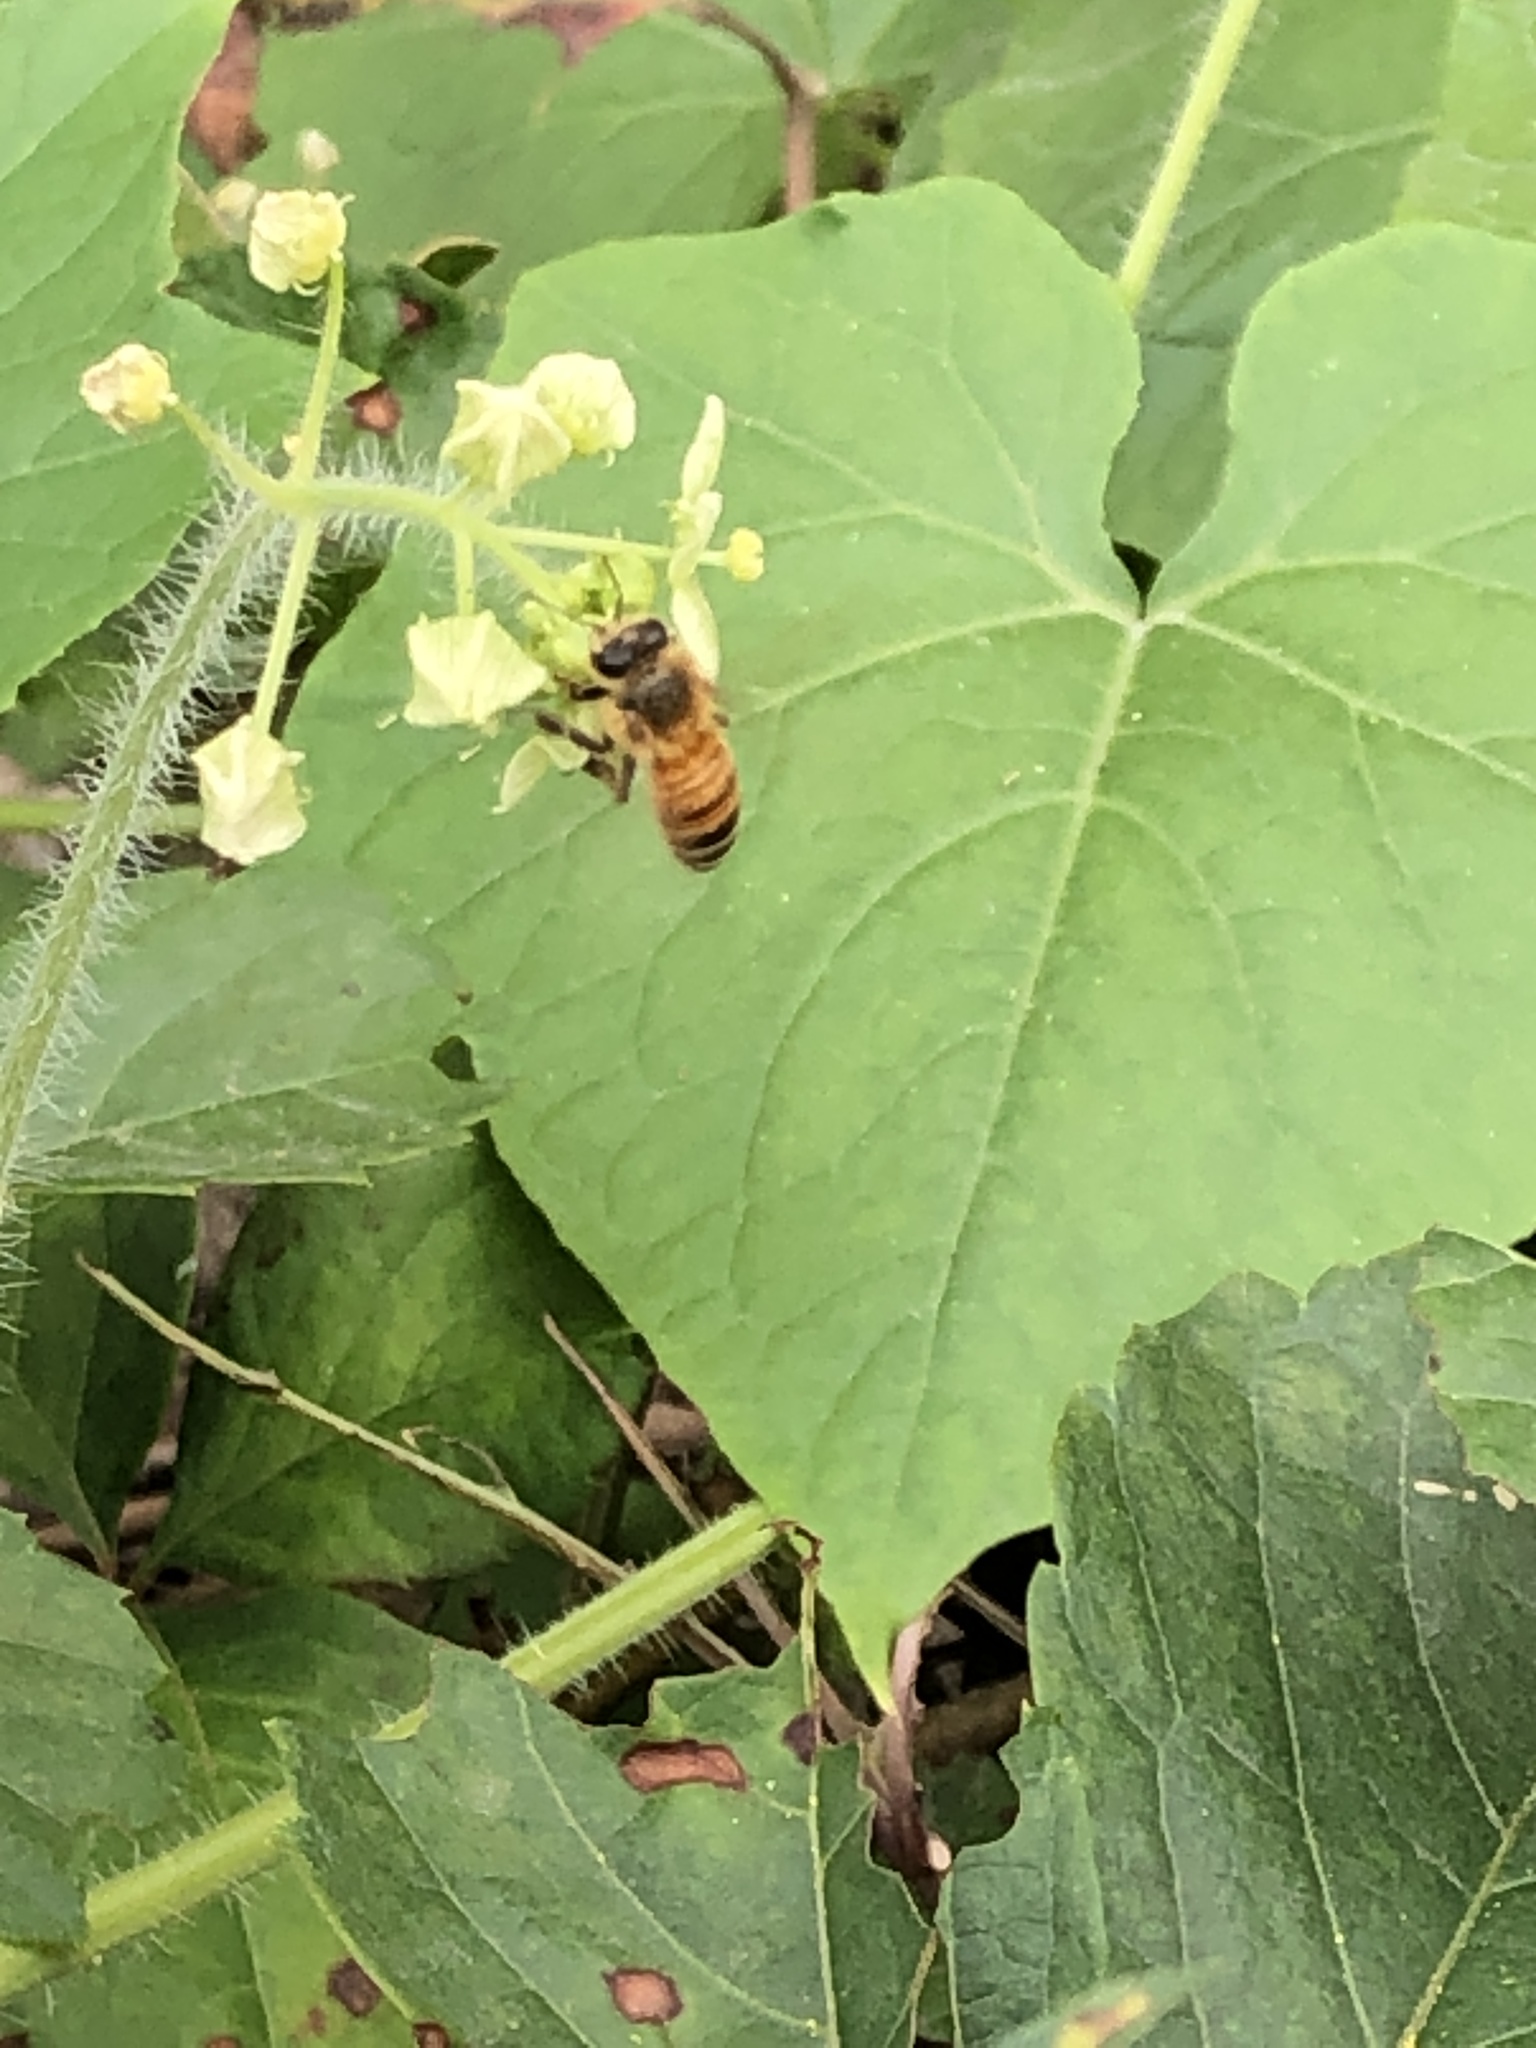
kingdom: Animalia
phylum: Arthropoda
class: Insecta
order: Hymenoptera
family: Apidae
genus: Apis
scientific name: Apis mellifera
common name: Honey bee
